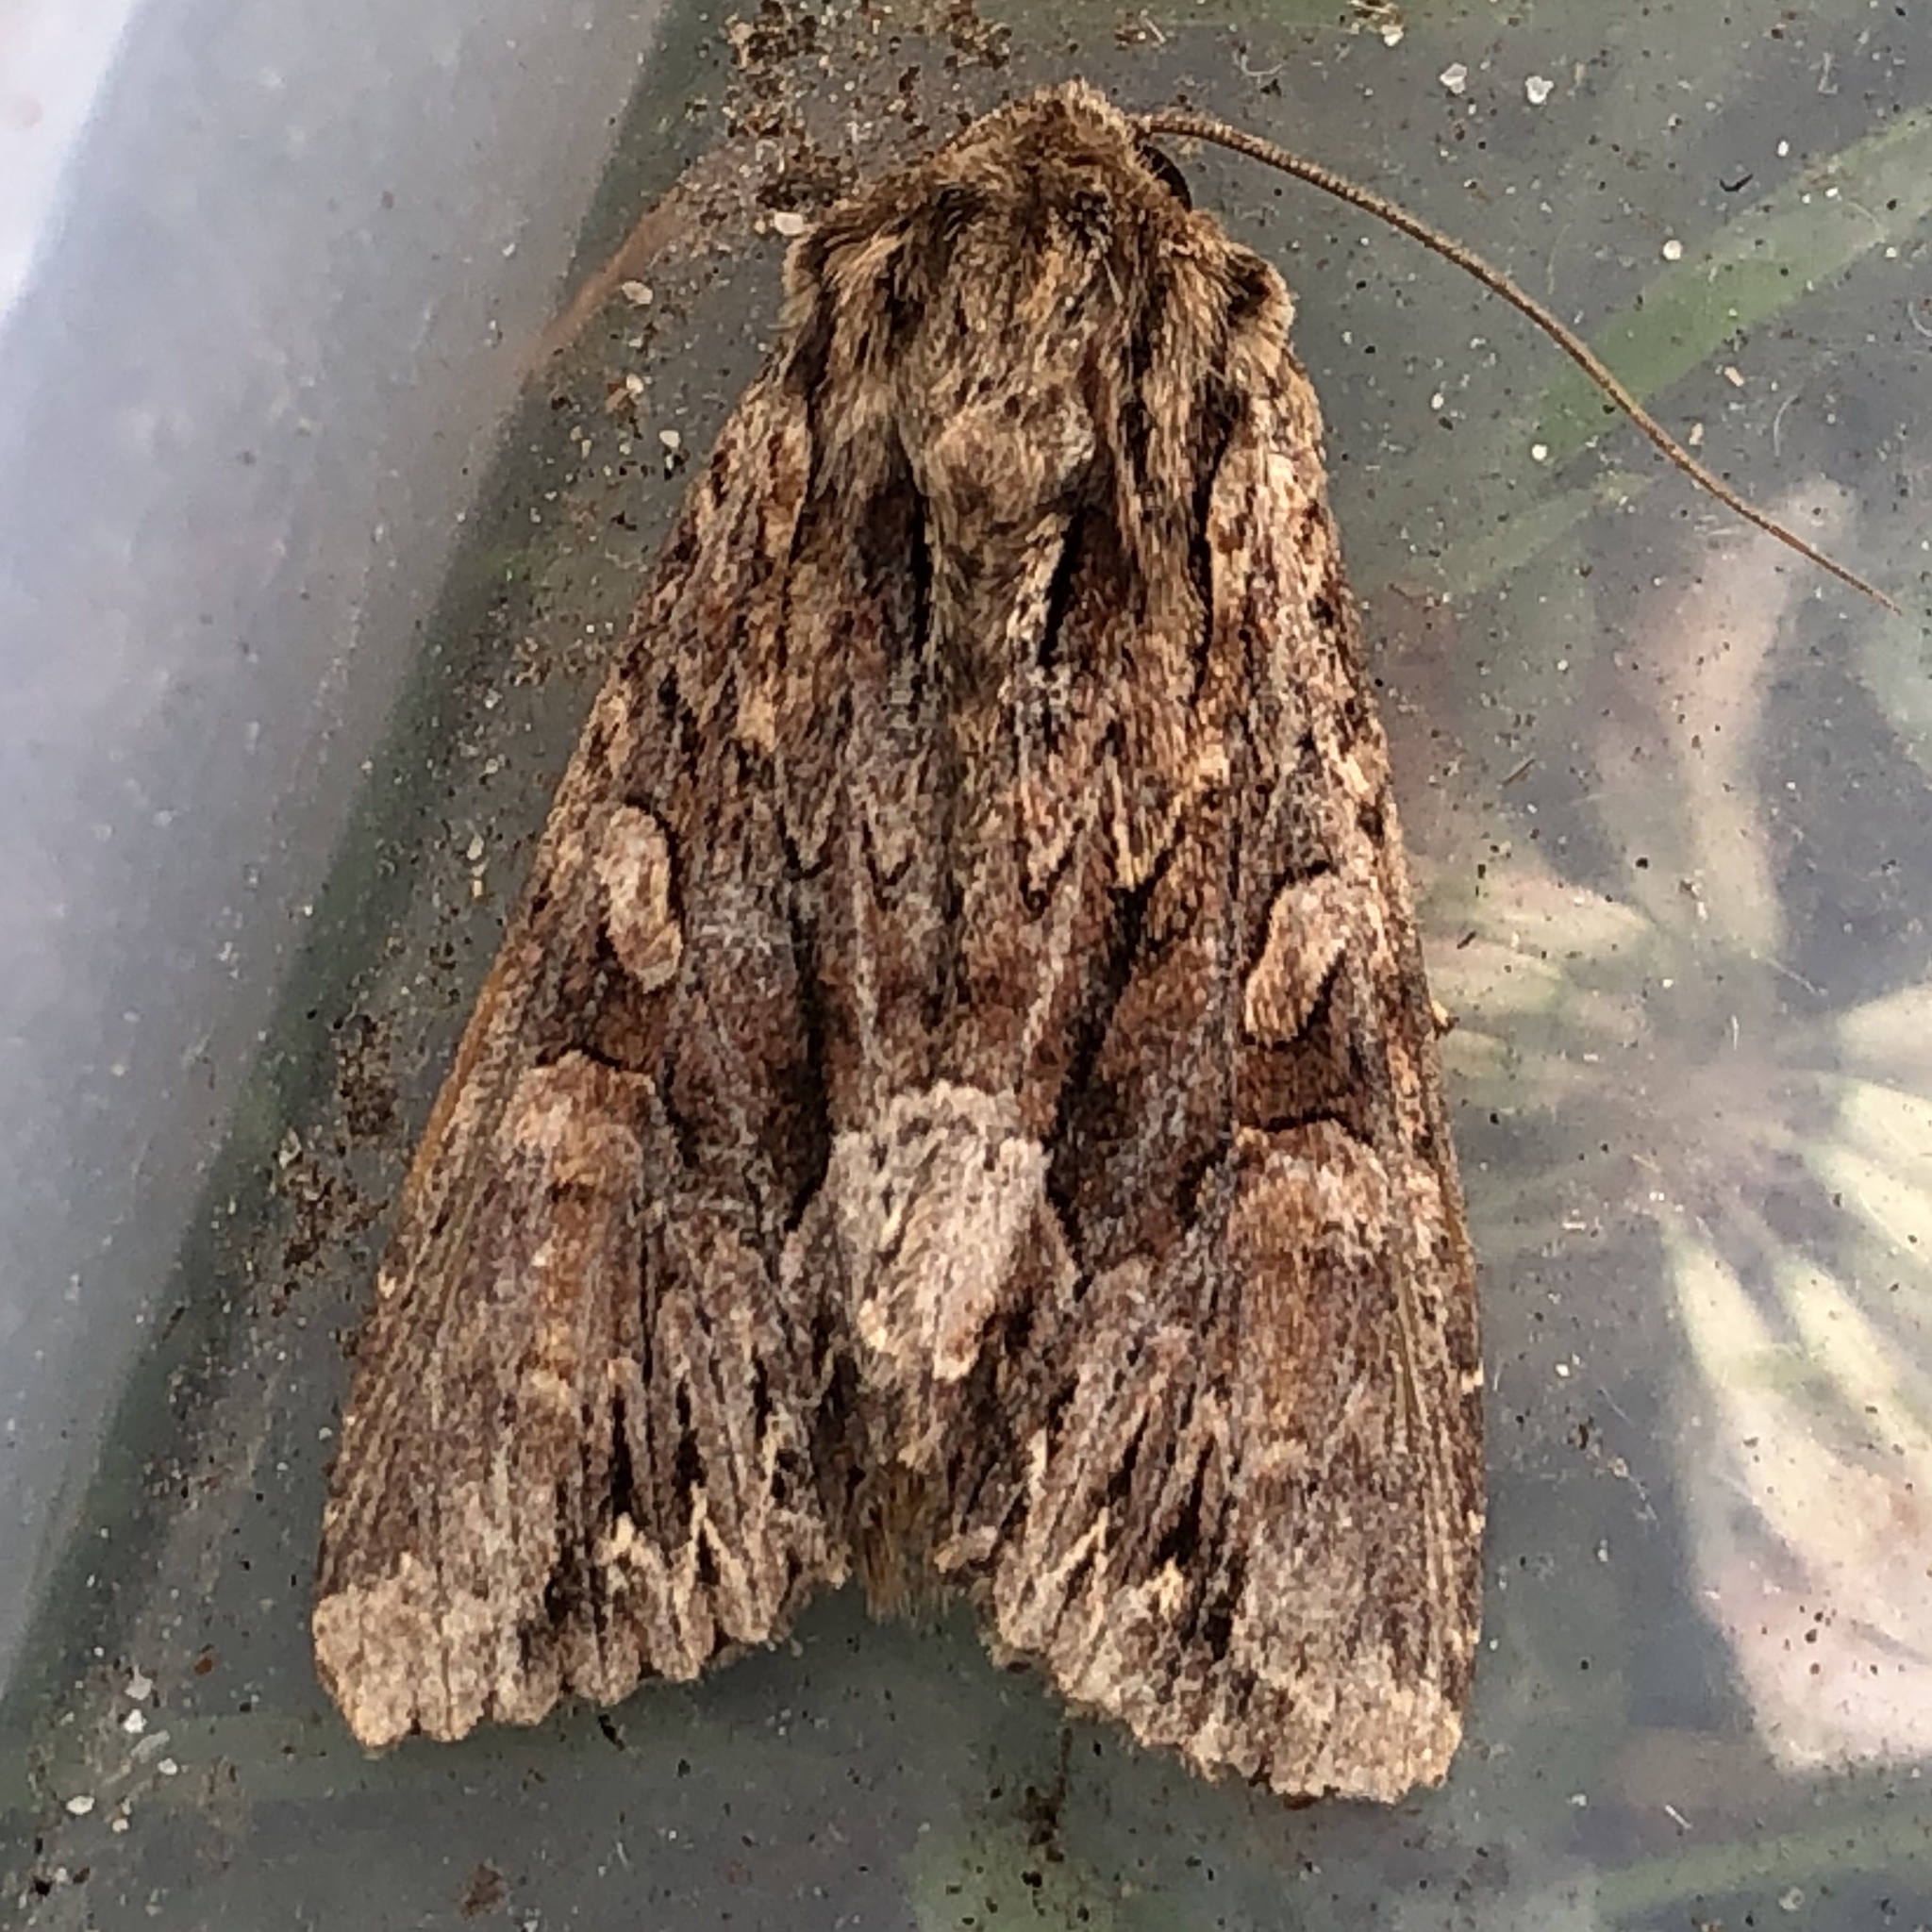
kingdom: Animalia
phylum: Arthropoda
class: Insecta
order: Lepidoptera
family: Noctuidae
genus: Apamea
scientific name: Apamea monoglypha
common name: Dark arches
